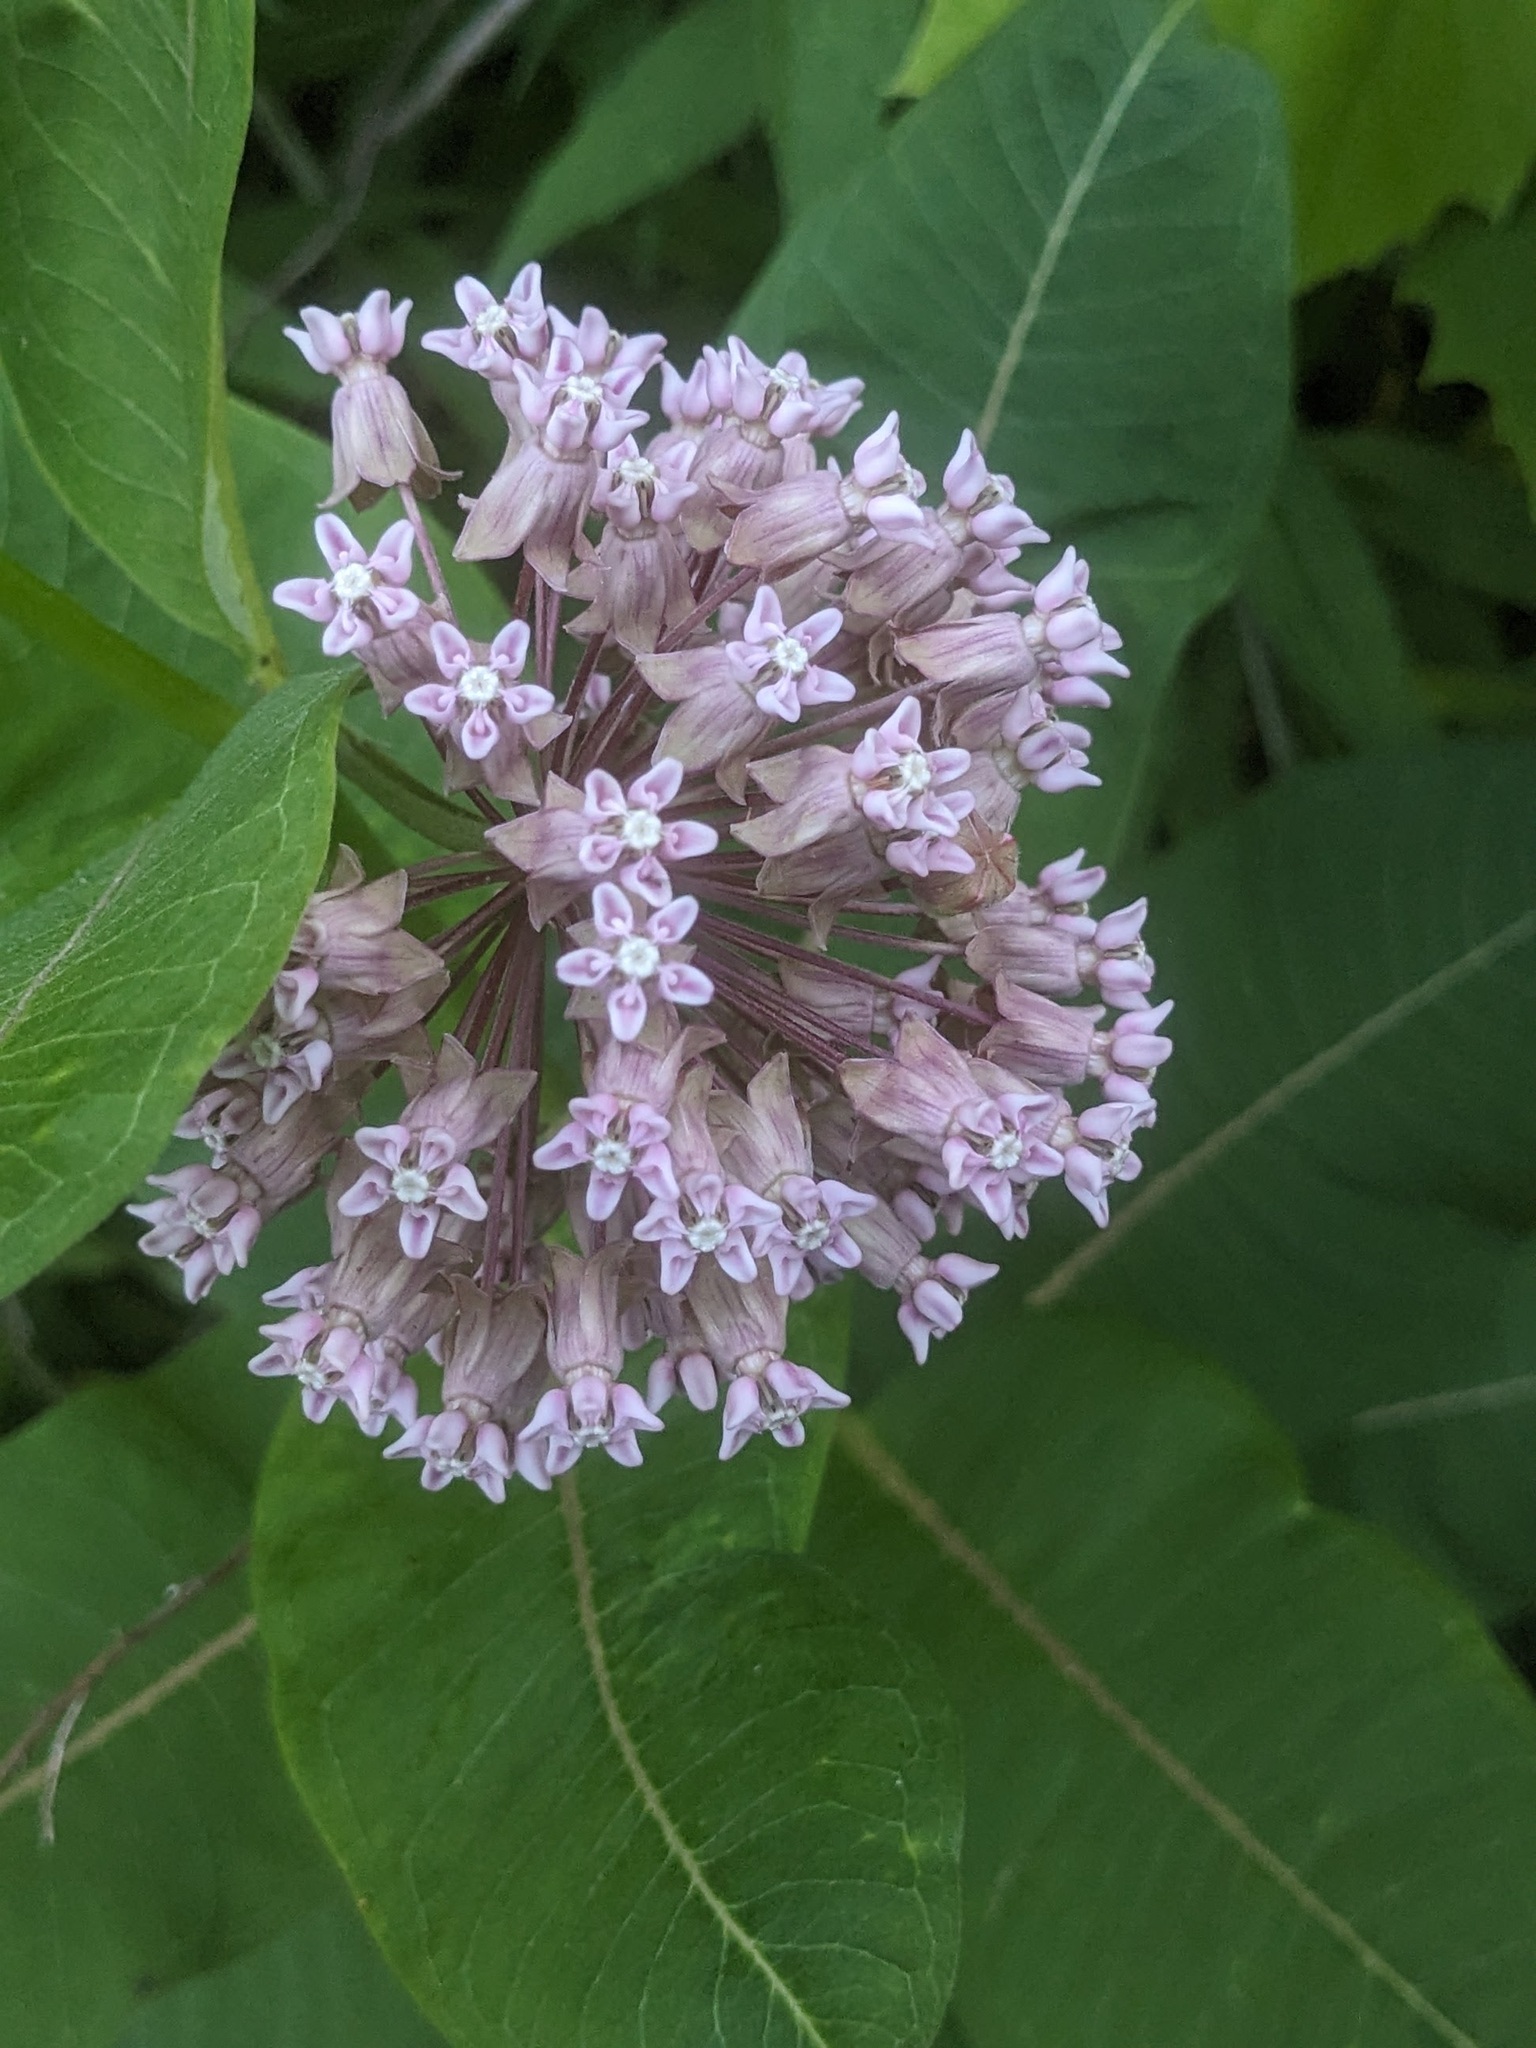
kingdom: Plantae
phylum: Tracheophyta
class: Magnoliopsida
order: Gentianales
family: Apocynaceae
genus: Asclepias
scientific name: Asclepias syriaca
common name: Common milkweed
